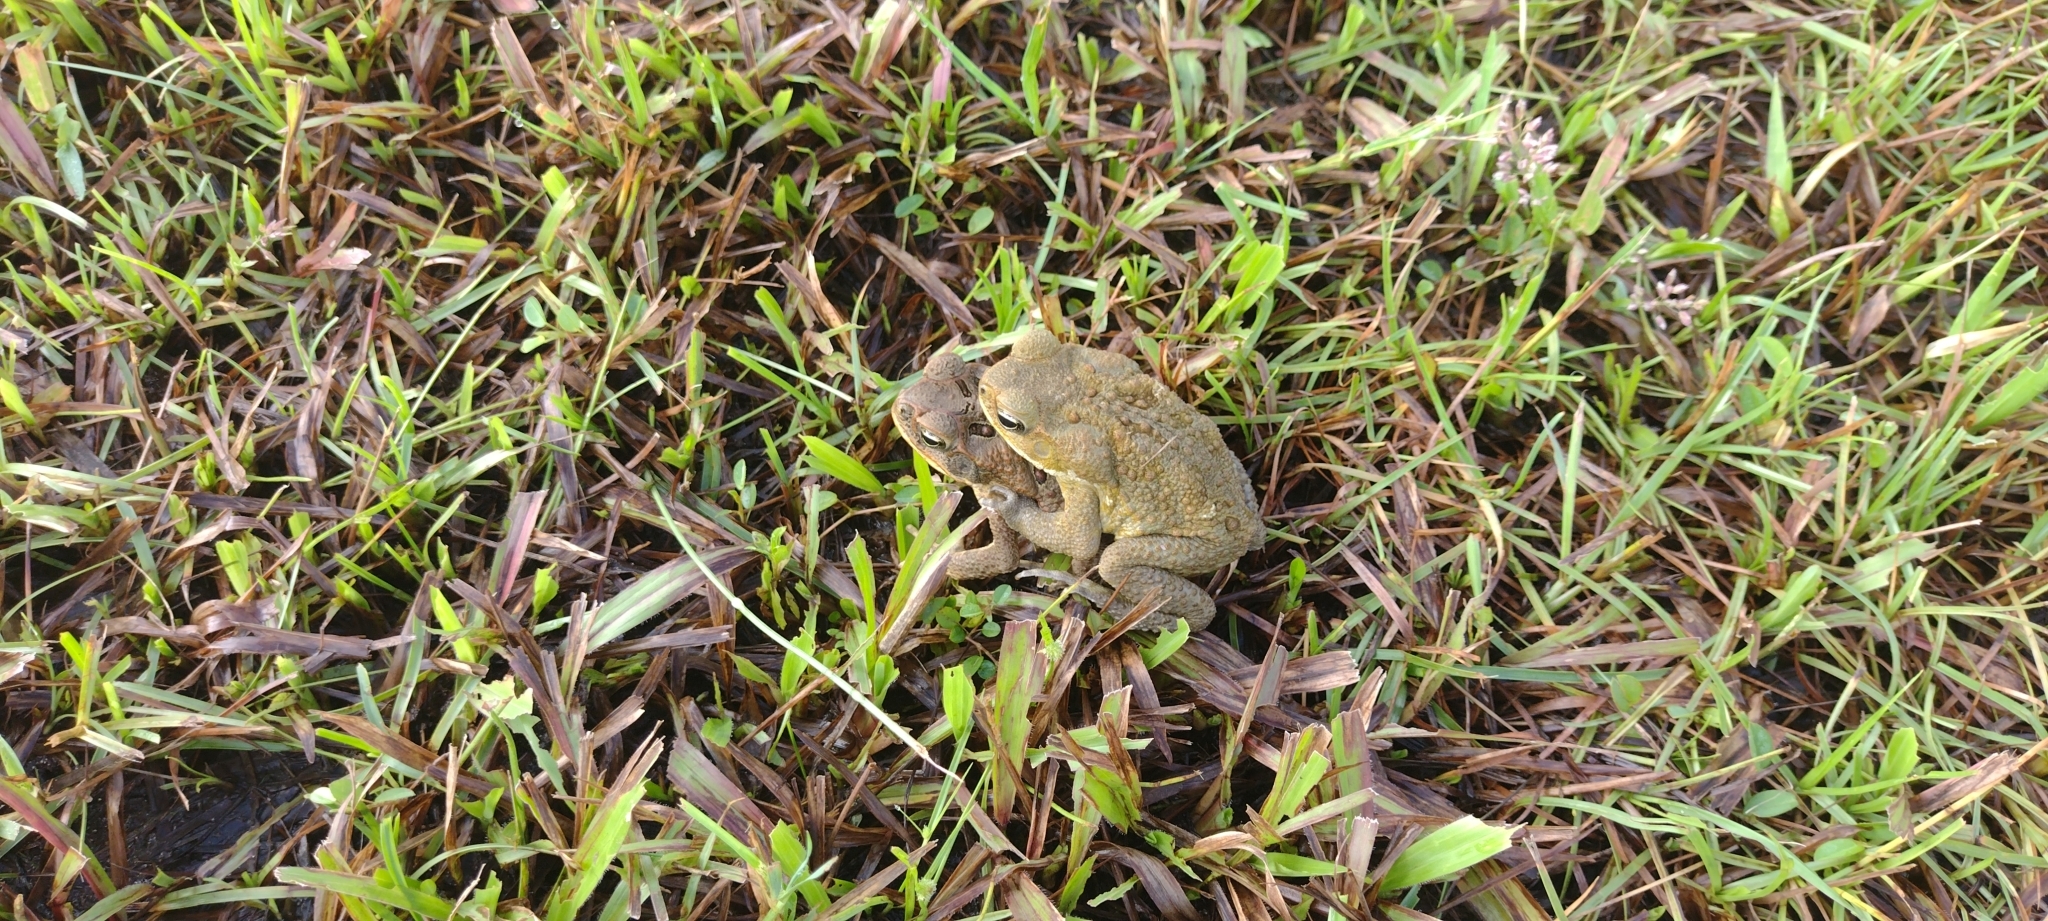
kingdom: Animalia
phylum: Chordata
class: Amphibia
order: Anura
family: Bufonidae
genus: Rhinella
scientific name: Rhinella marina
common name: Cane toad
